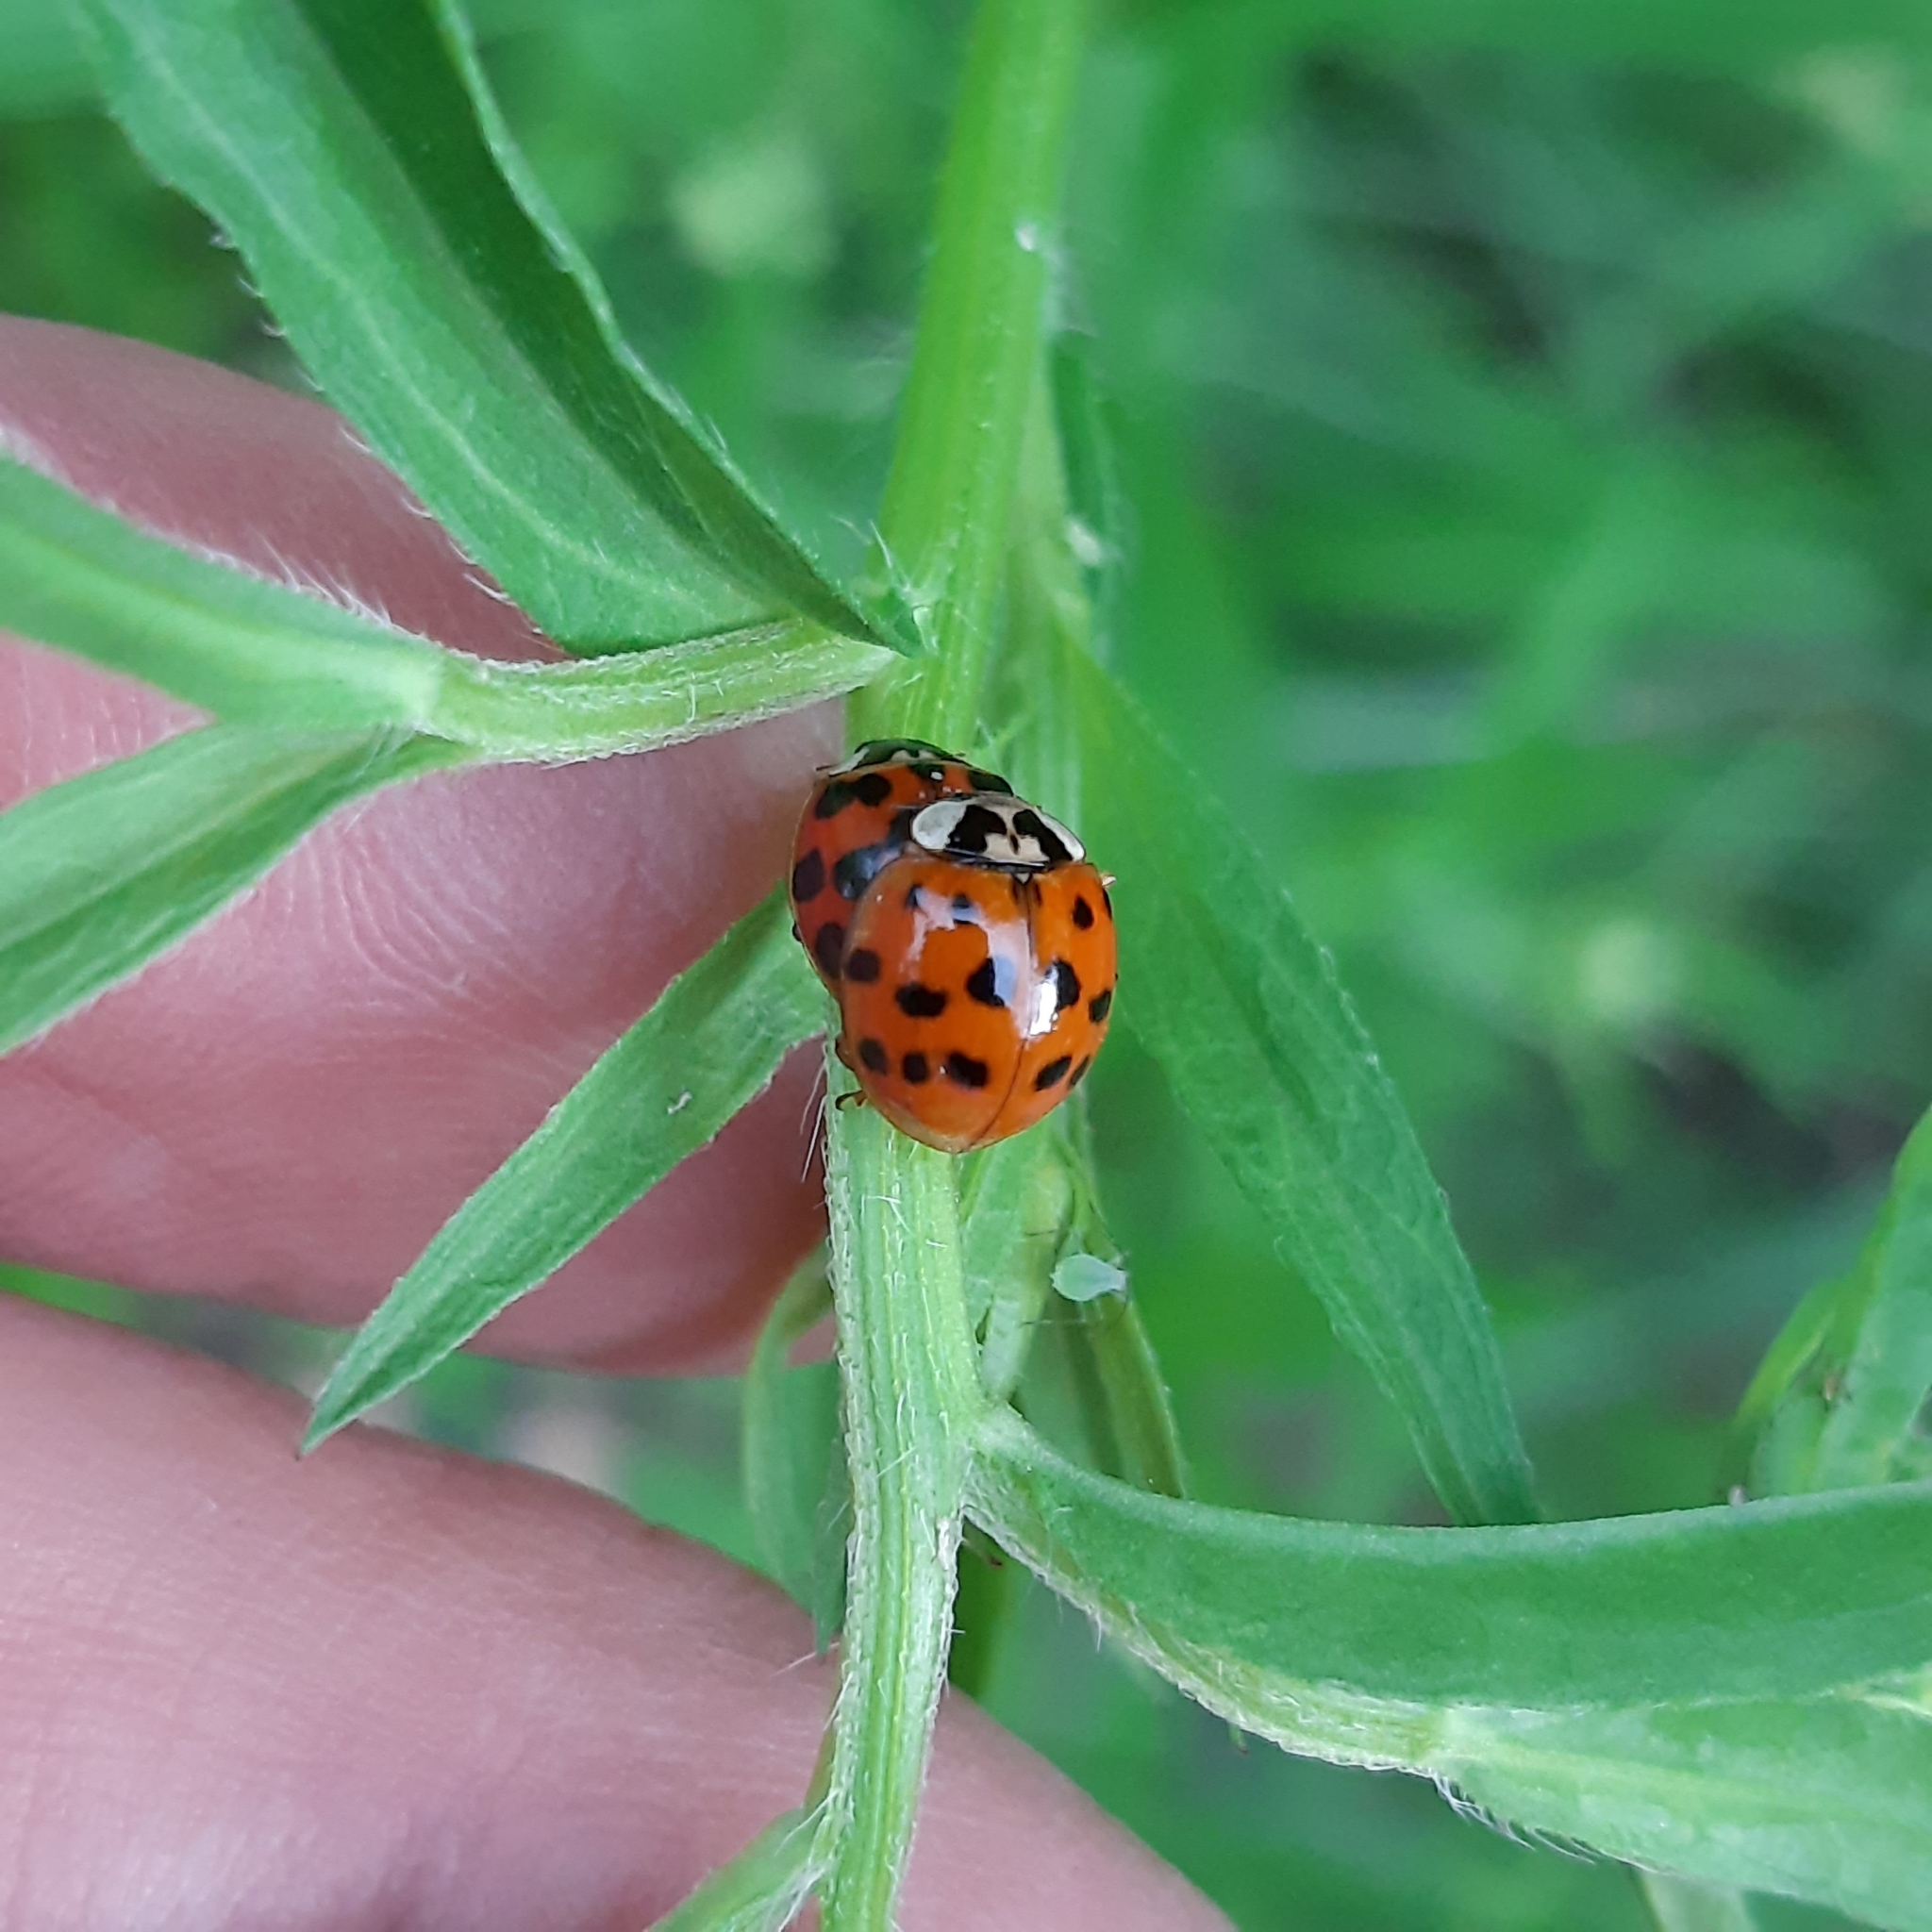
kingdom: Animalia
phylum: Arthropoda
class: Insecta
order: Coleoptera
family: Coccinellidae
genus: Harmonia
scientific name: Harmonia axyridis
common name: Harlequin ladybird
